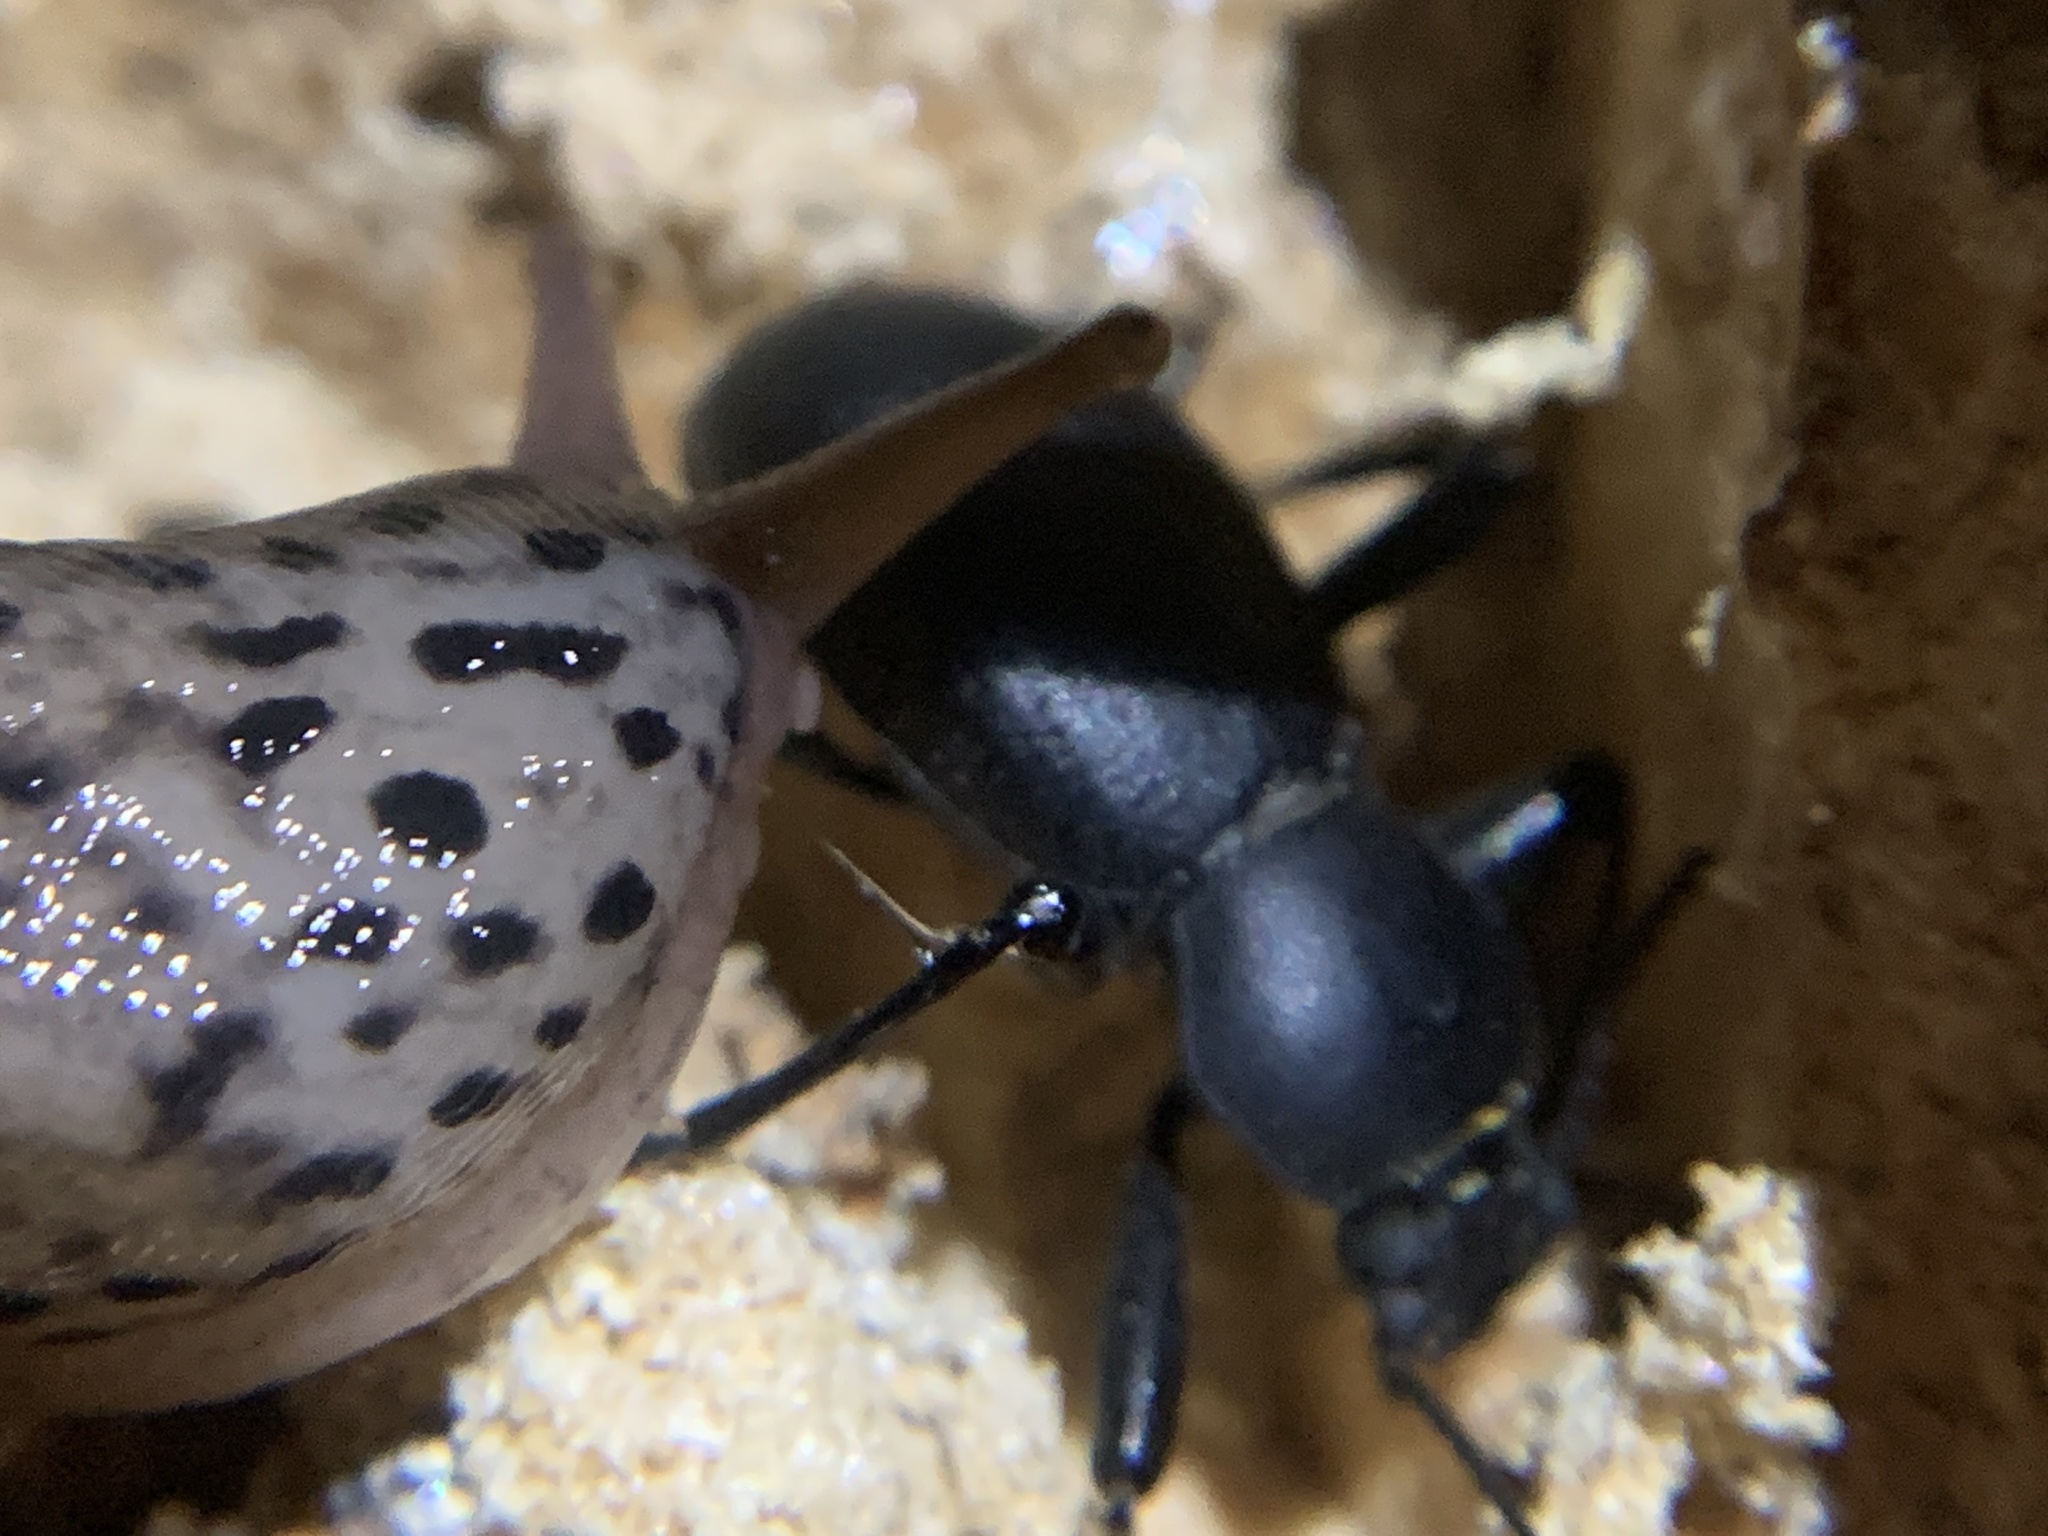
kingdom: Animalia
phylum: Mollusca
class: Gastropoda
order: Stylommatophora
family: Limacidae
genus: Limax
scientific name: Limax maximus
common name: Great grey slug
